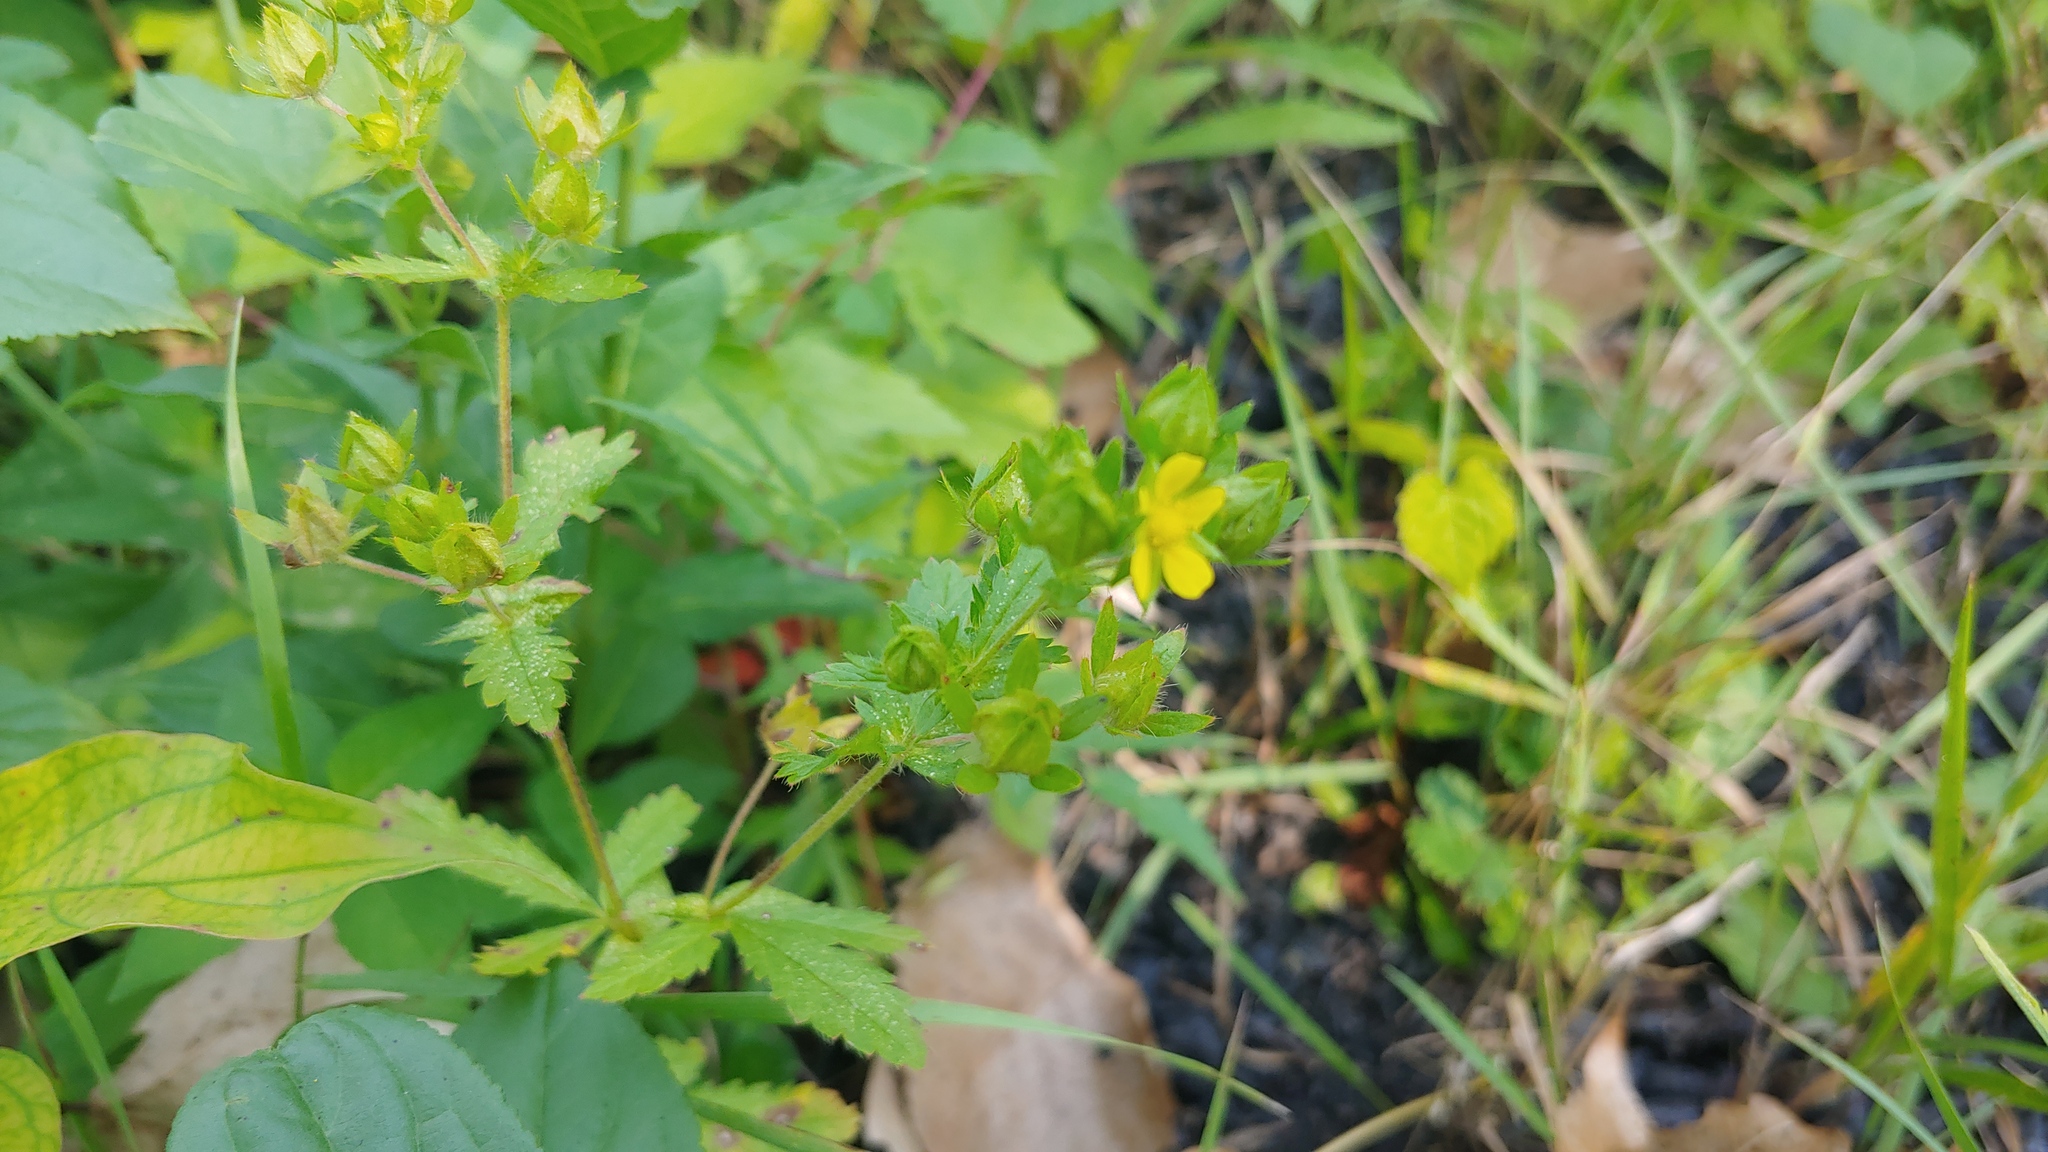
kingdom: Plantae
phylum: Tracheophyta
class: Magnoliopsida
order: Rosales
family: Rosaceae
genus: Potentilla
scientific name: Potentilla norvegica
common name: Ternate-leaved cinquefoil
